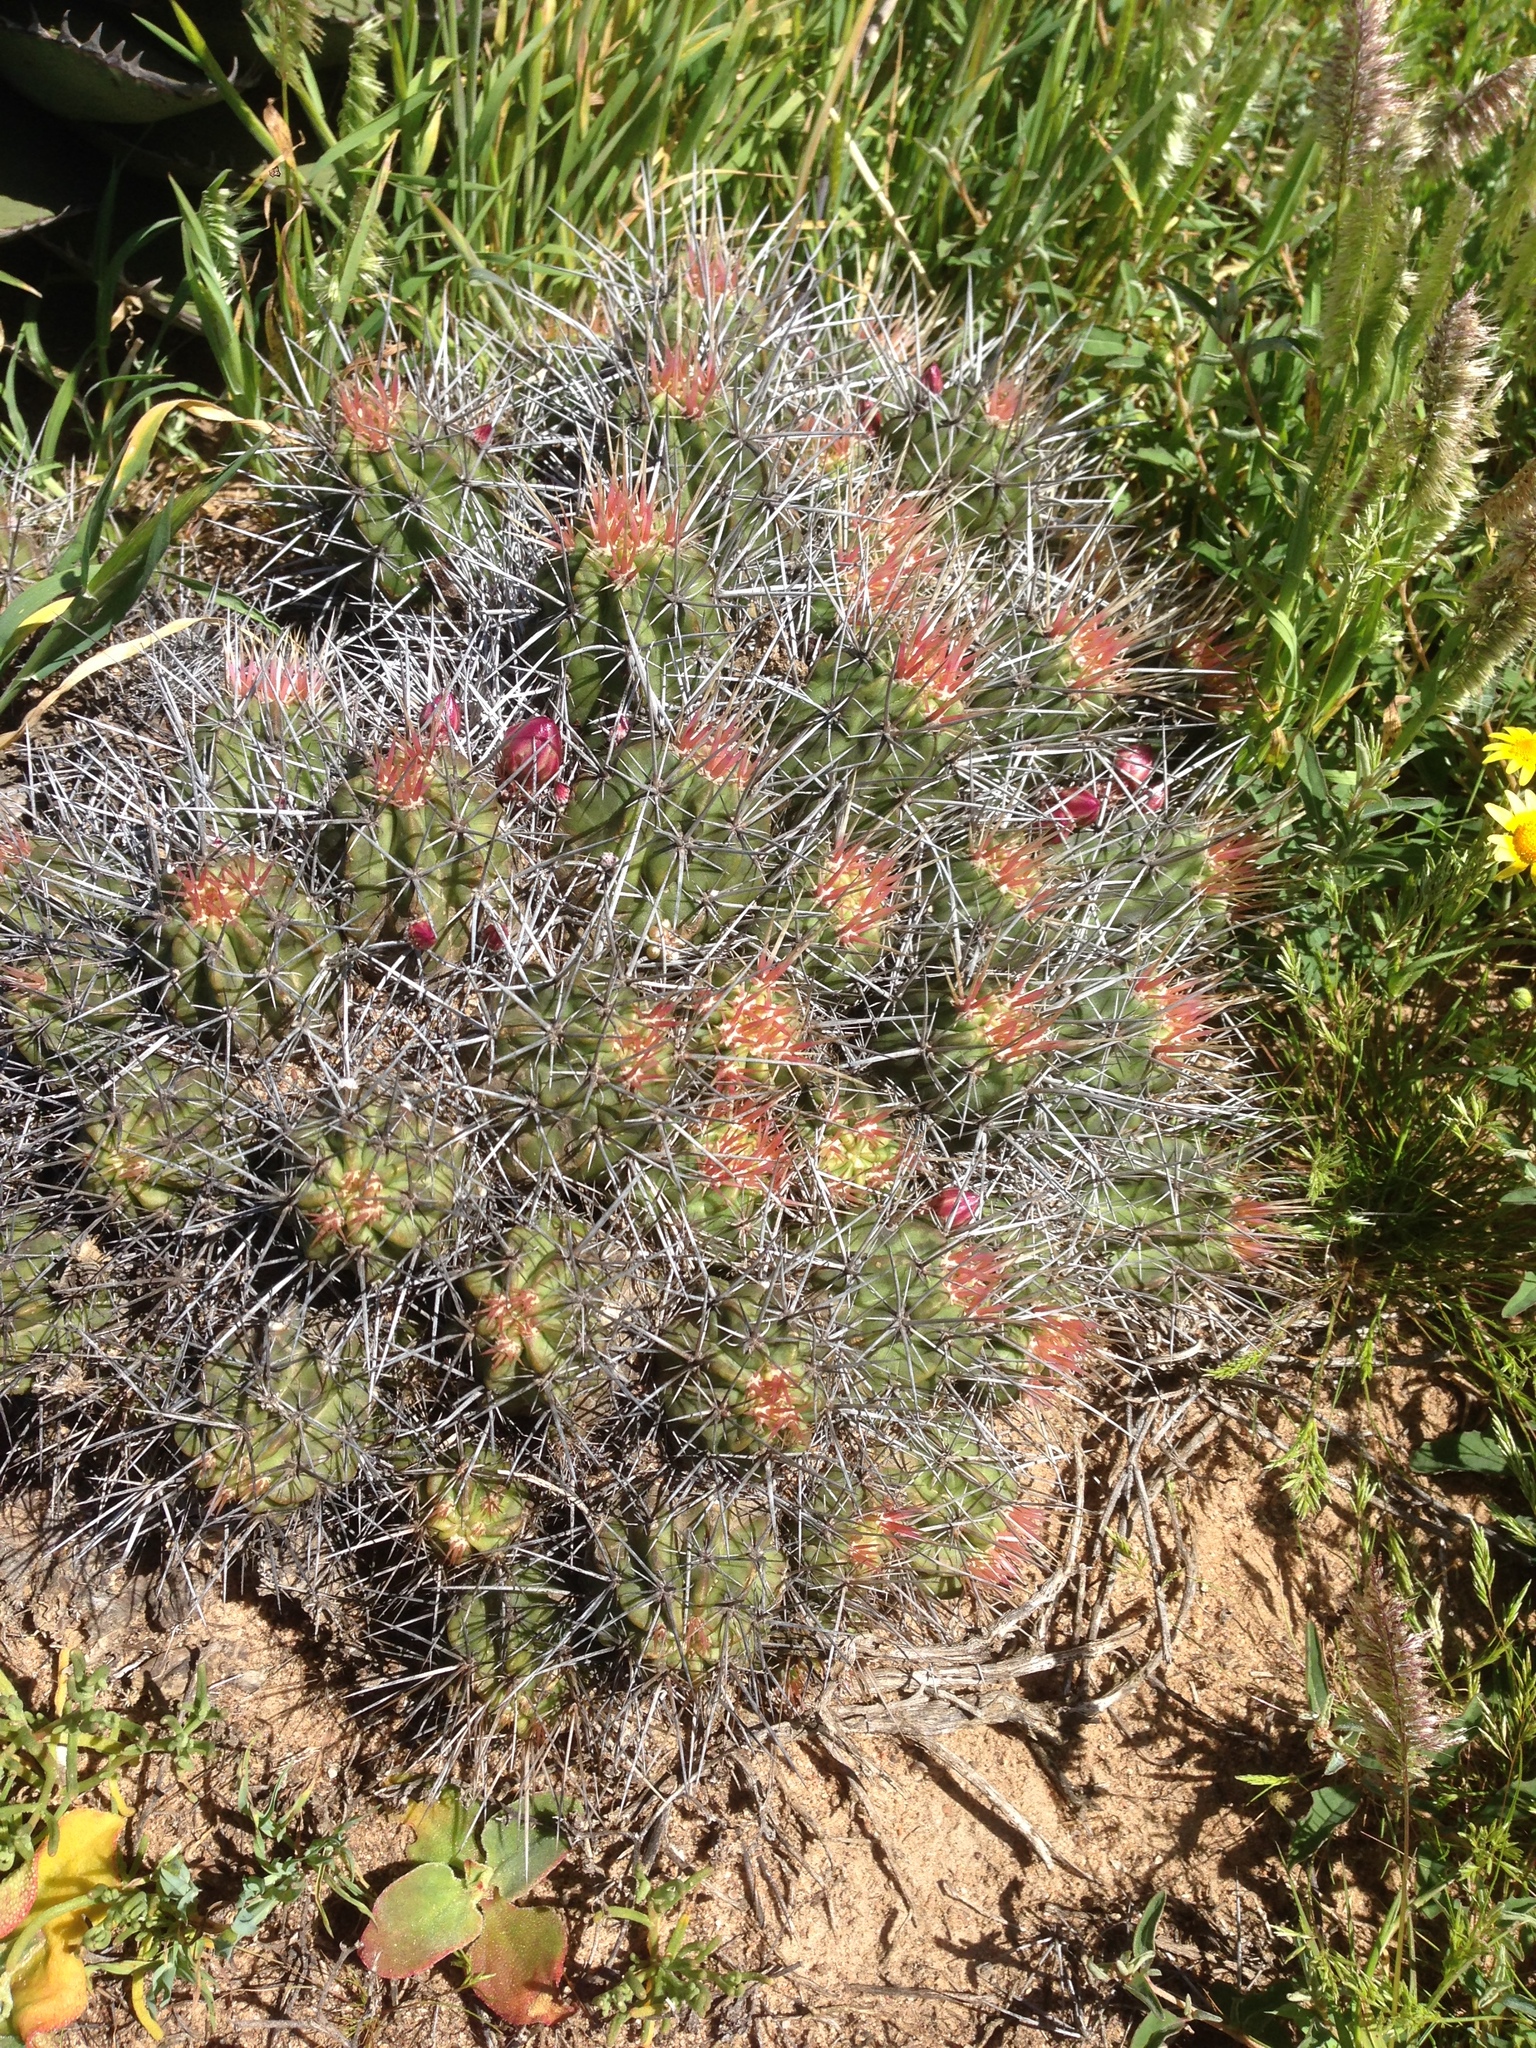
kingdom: Plantae
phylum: Tracheophyta
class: Magnoliopsida
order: Caryophyllales
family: Cactaceae
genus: Echinocereus
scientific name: Echinocereus maritimus
